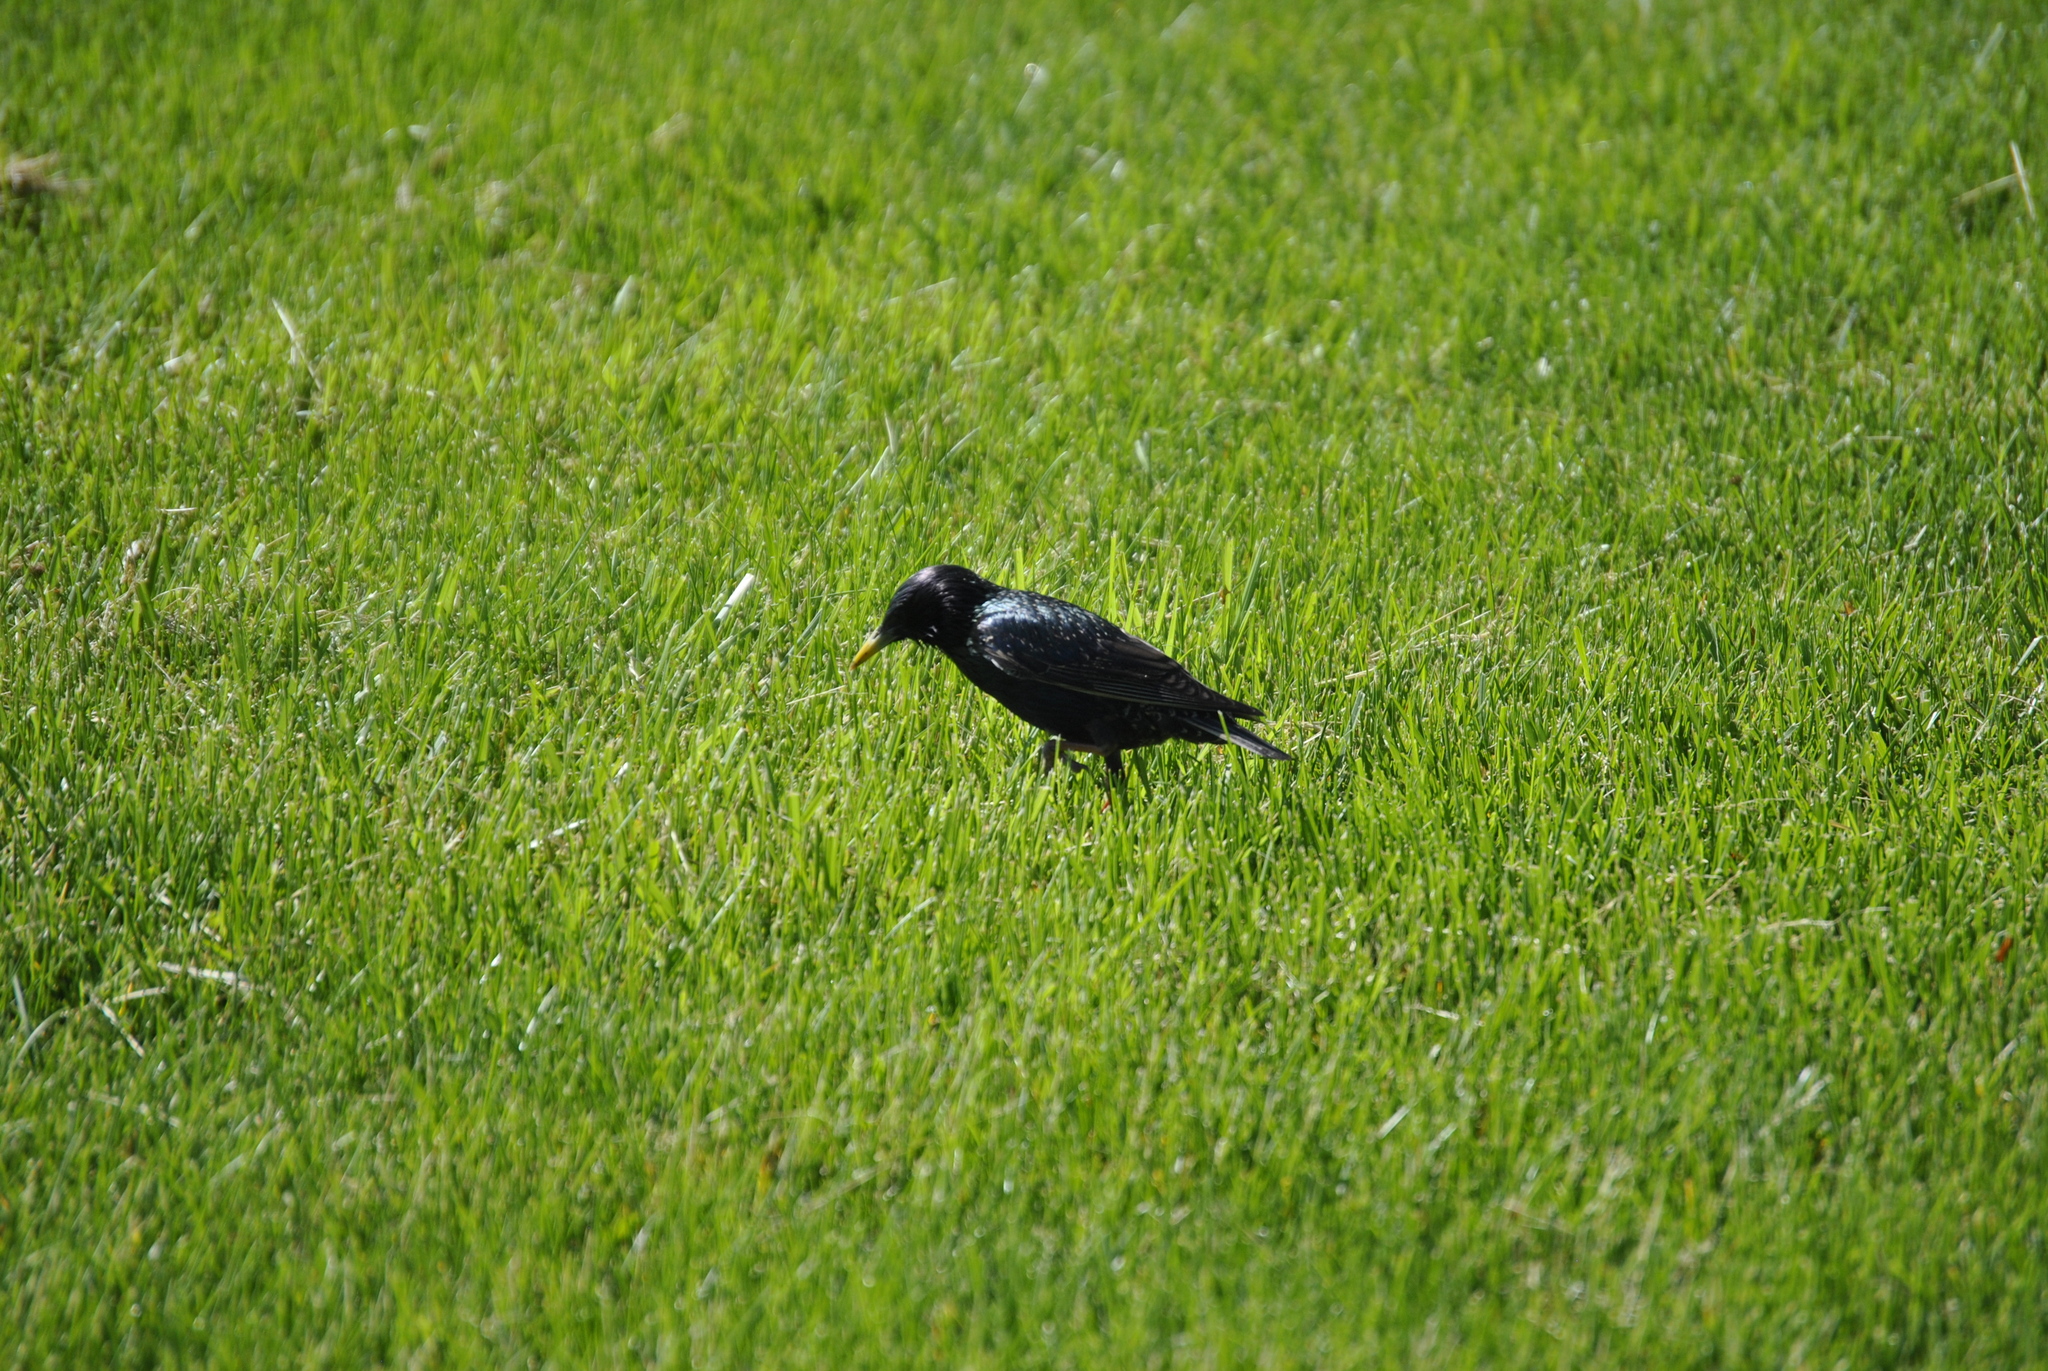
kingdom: Animalia
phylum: Chordata
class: Aves
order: Passeriformes
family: Sturnidae
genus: Sturnus
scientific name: Sturnus vulgaris
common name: Common starling
